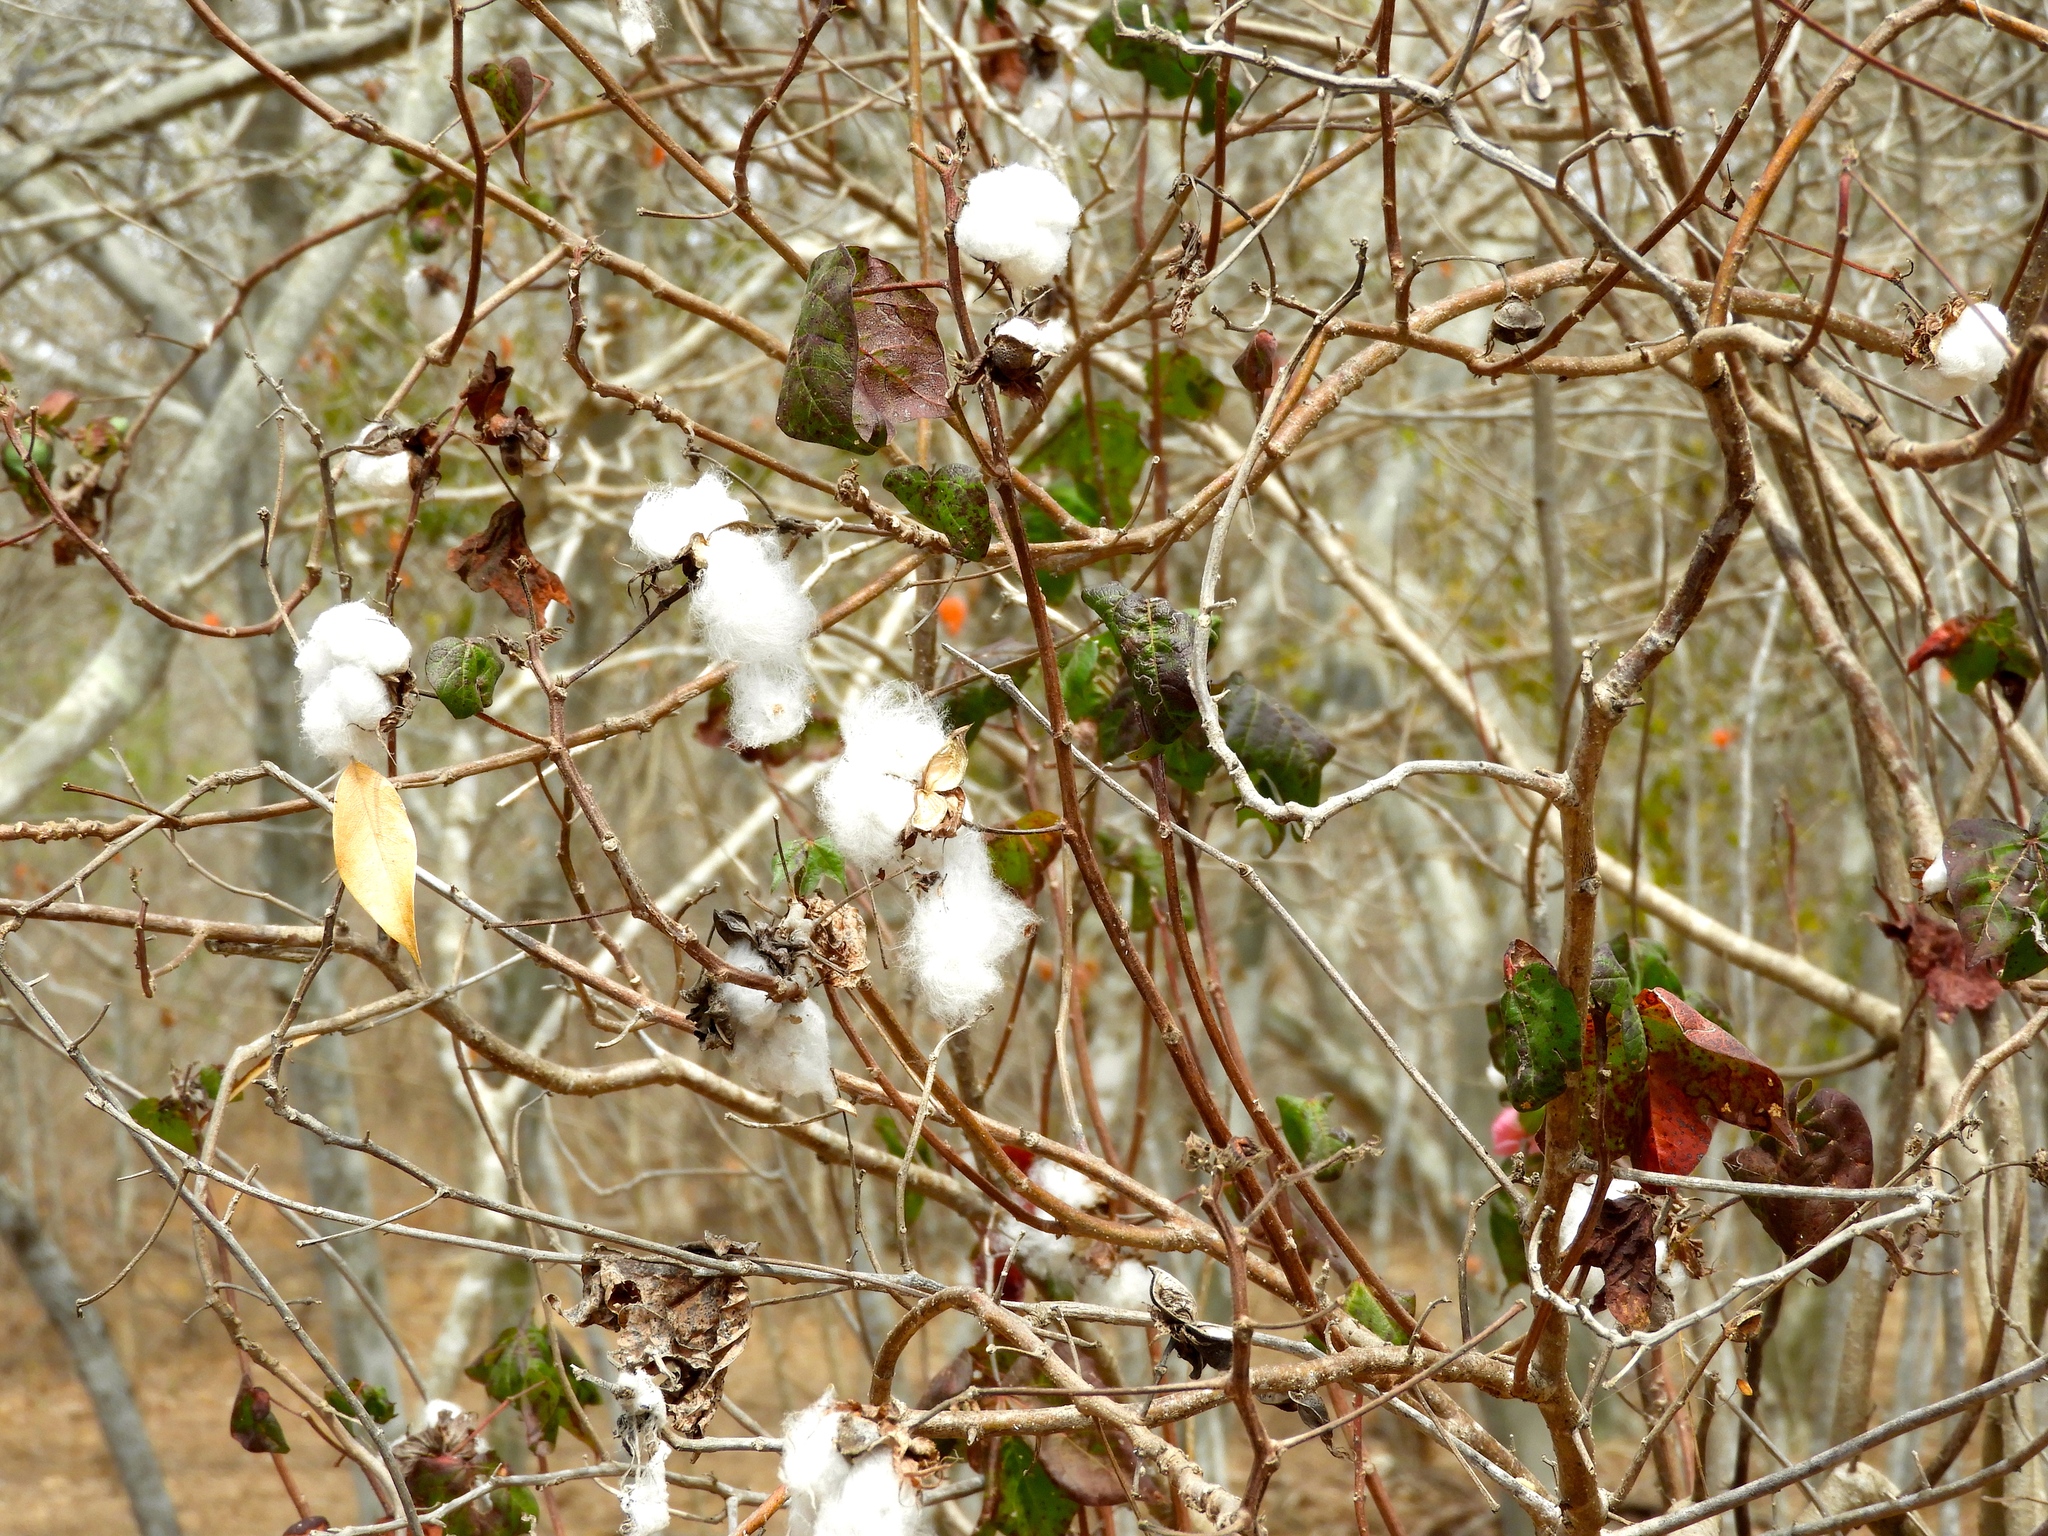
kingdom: Plantae
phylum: Tracheophyta
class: Magnoliopsida
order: Malvales
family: Malvaceae
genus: Gossypium
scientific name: Gossypium hirsutum
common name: Cotton
